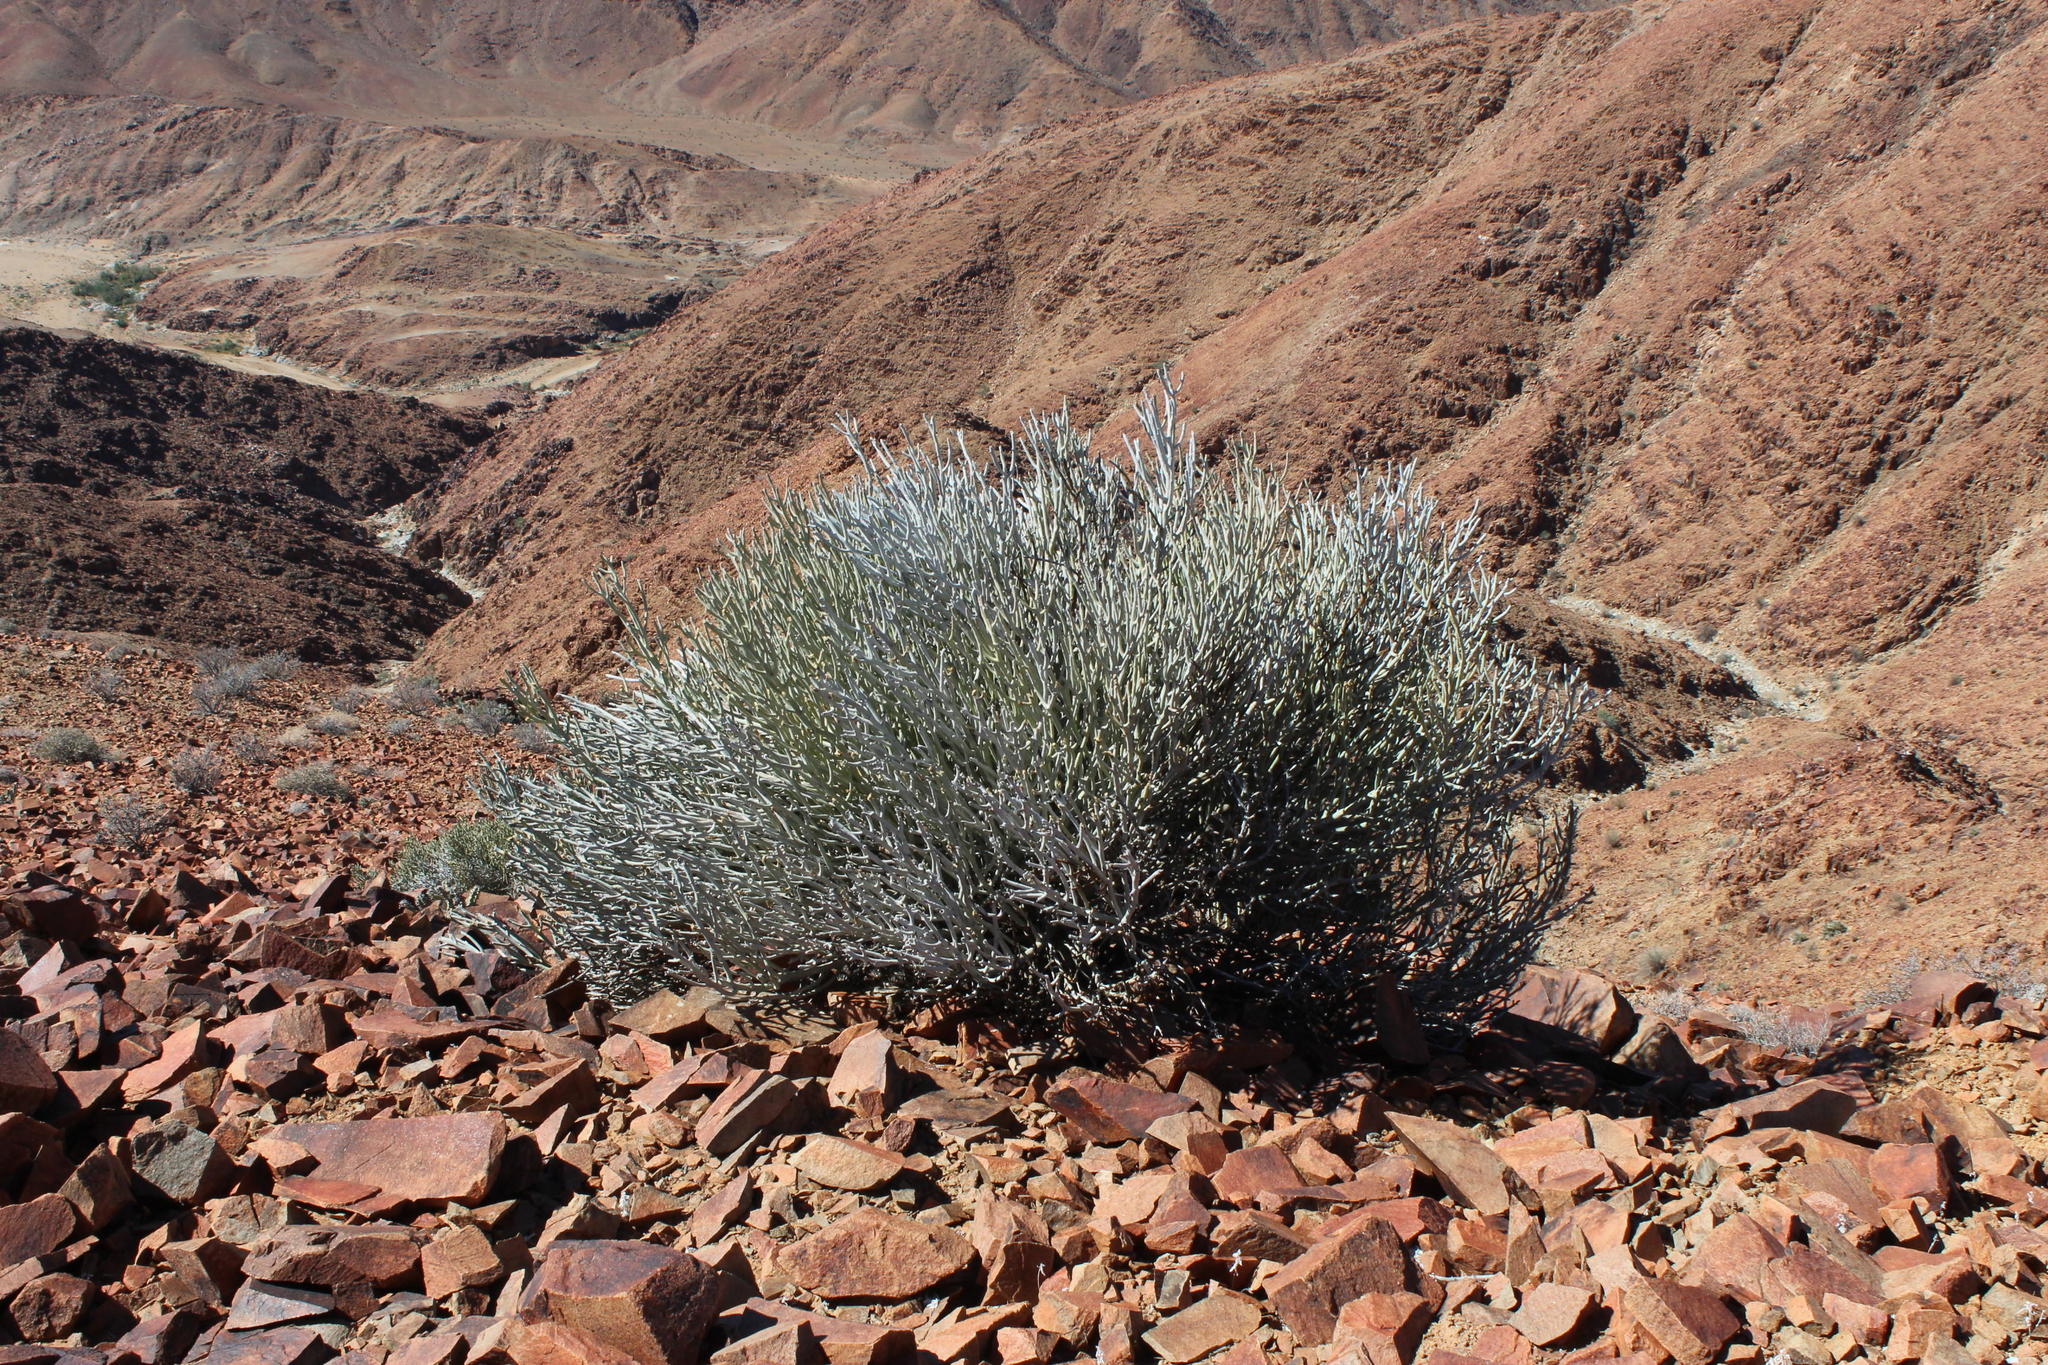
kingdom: Plantae
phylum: Tracheophyta
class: Magnoliopsida
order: Malpighiales
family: Euphorbiaceae
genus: Euphorbia
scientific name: Euphorbia gummifera
